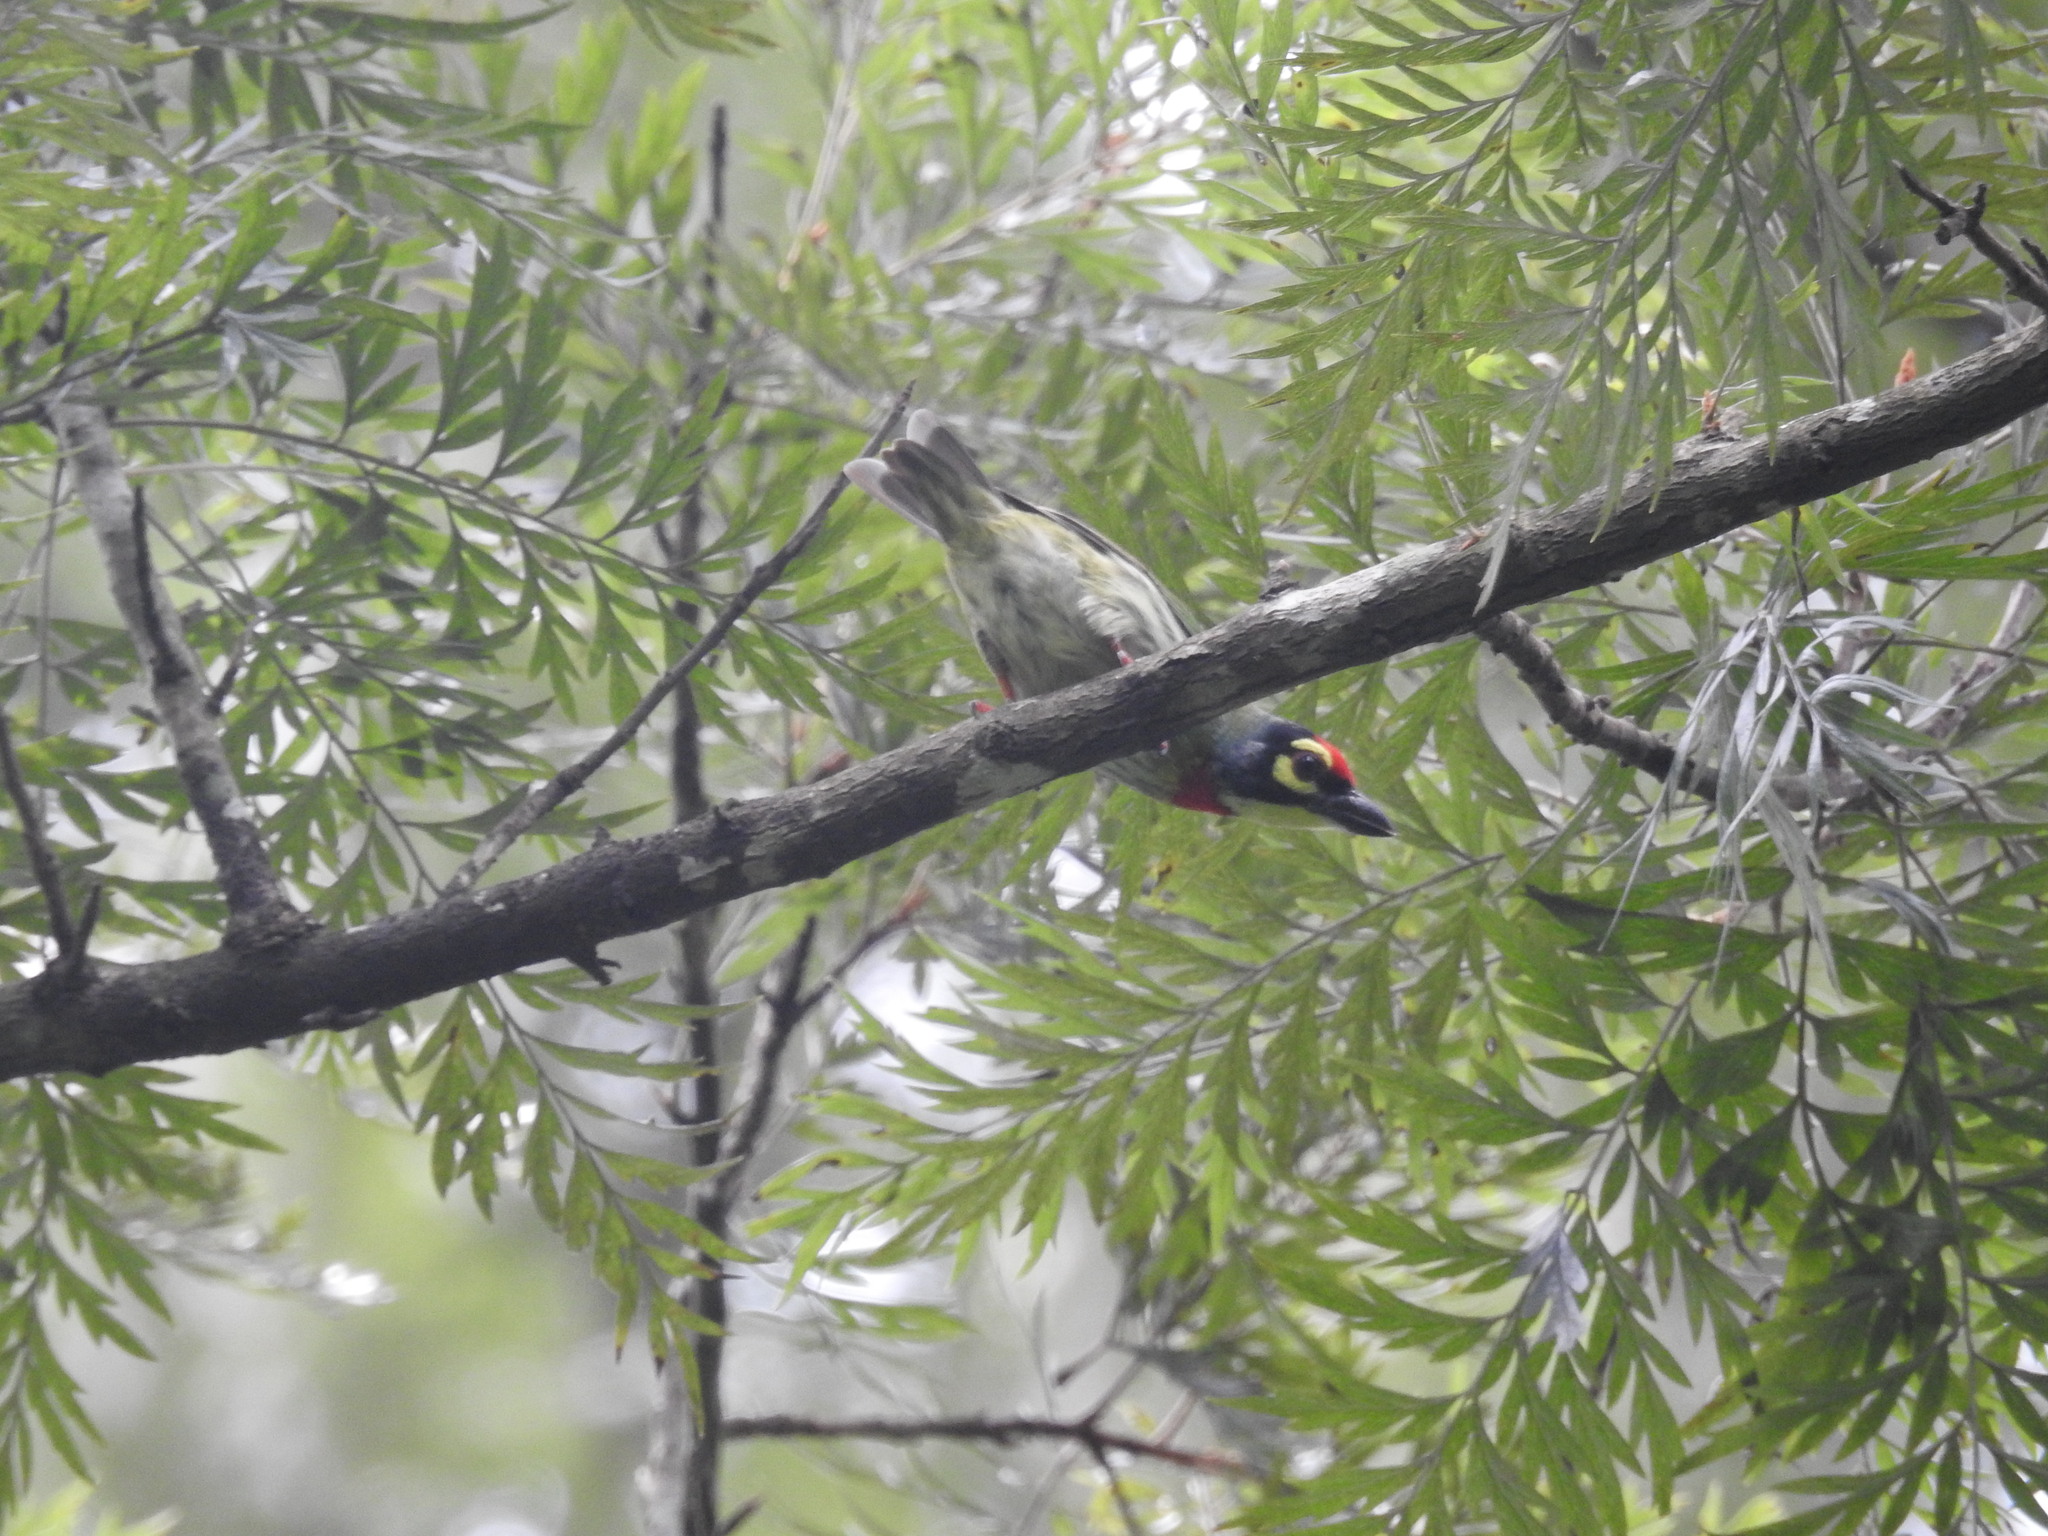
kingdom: Animalia
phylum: Chordata
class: Aves
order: Piciformes
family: Megalaimidae
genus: Psilopogon
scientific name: Psilopogon haemacephalus
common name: Coppersmith barbet
